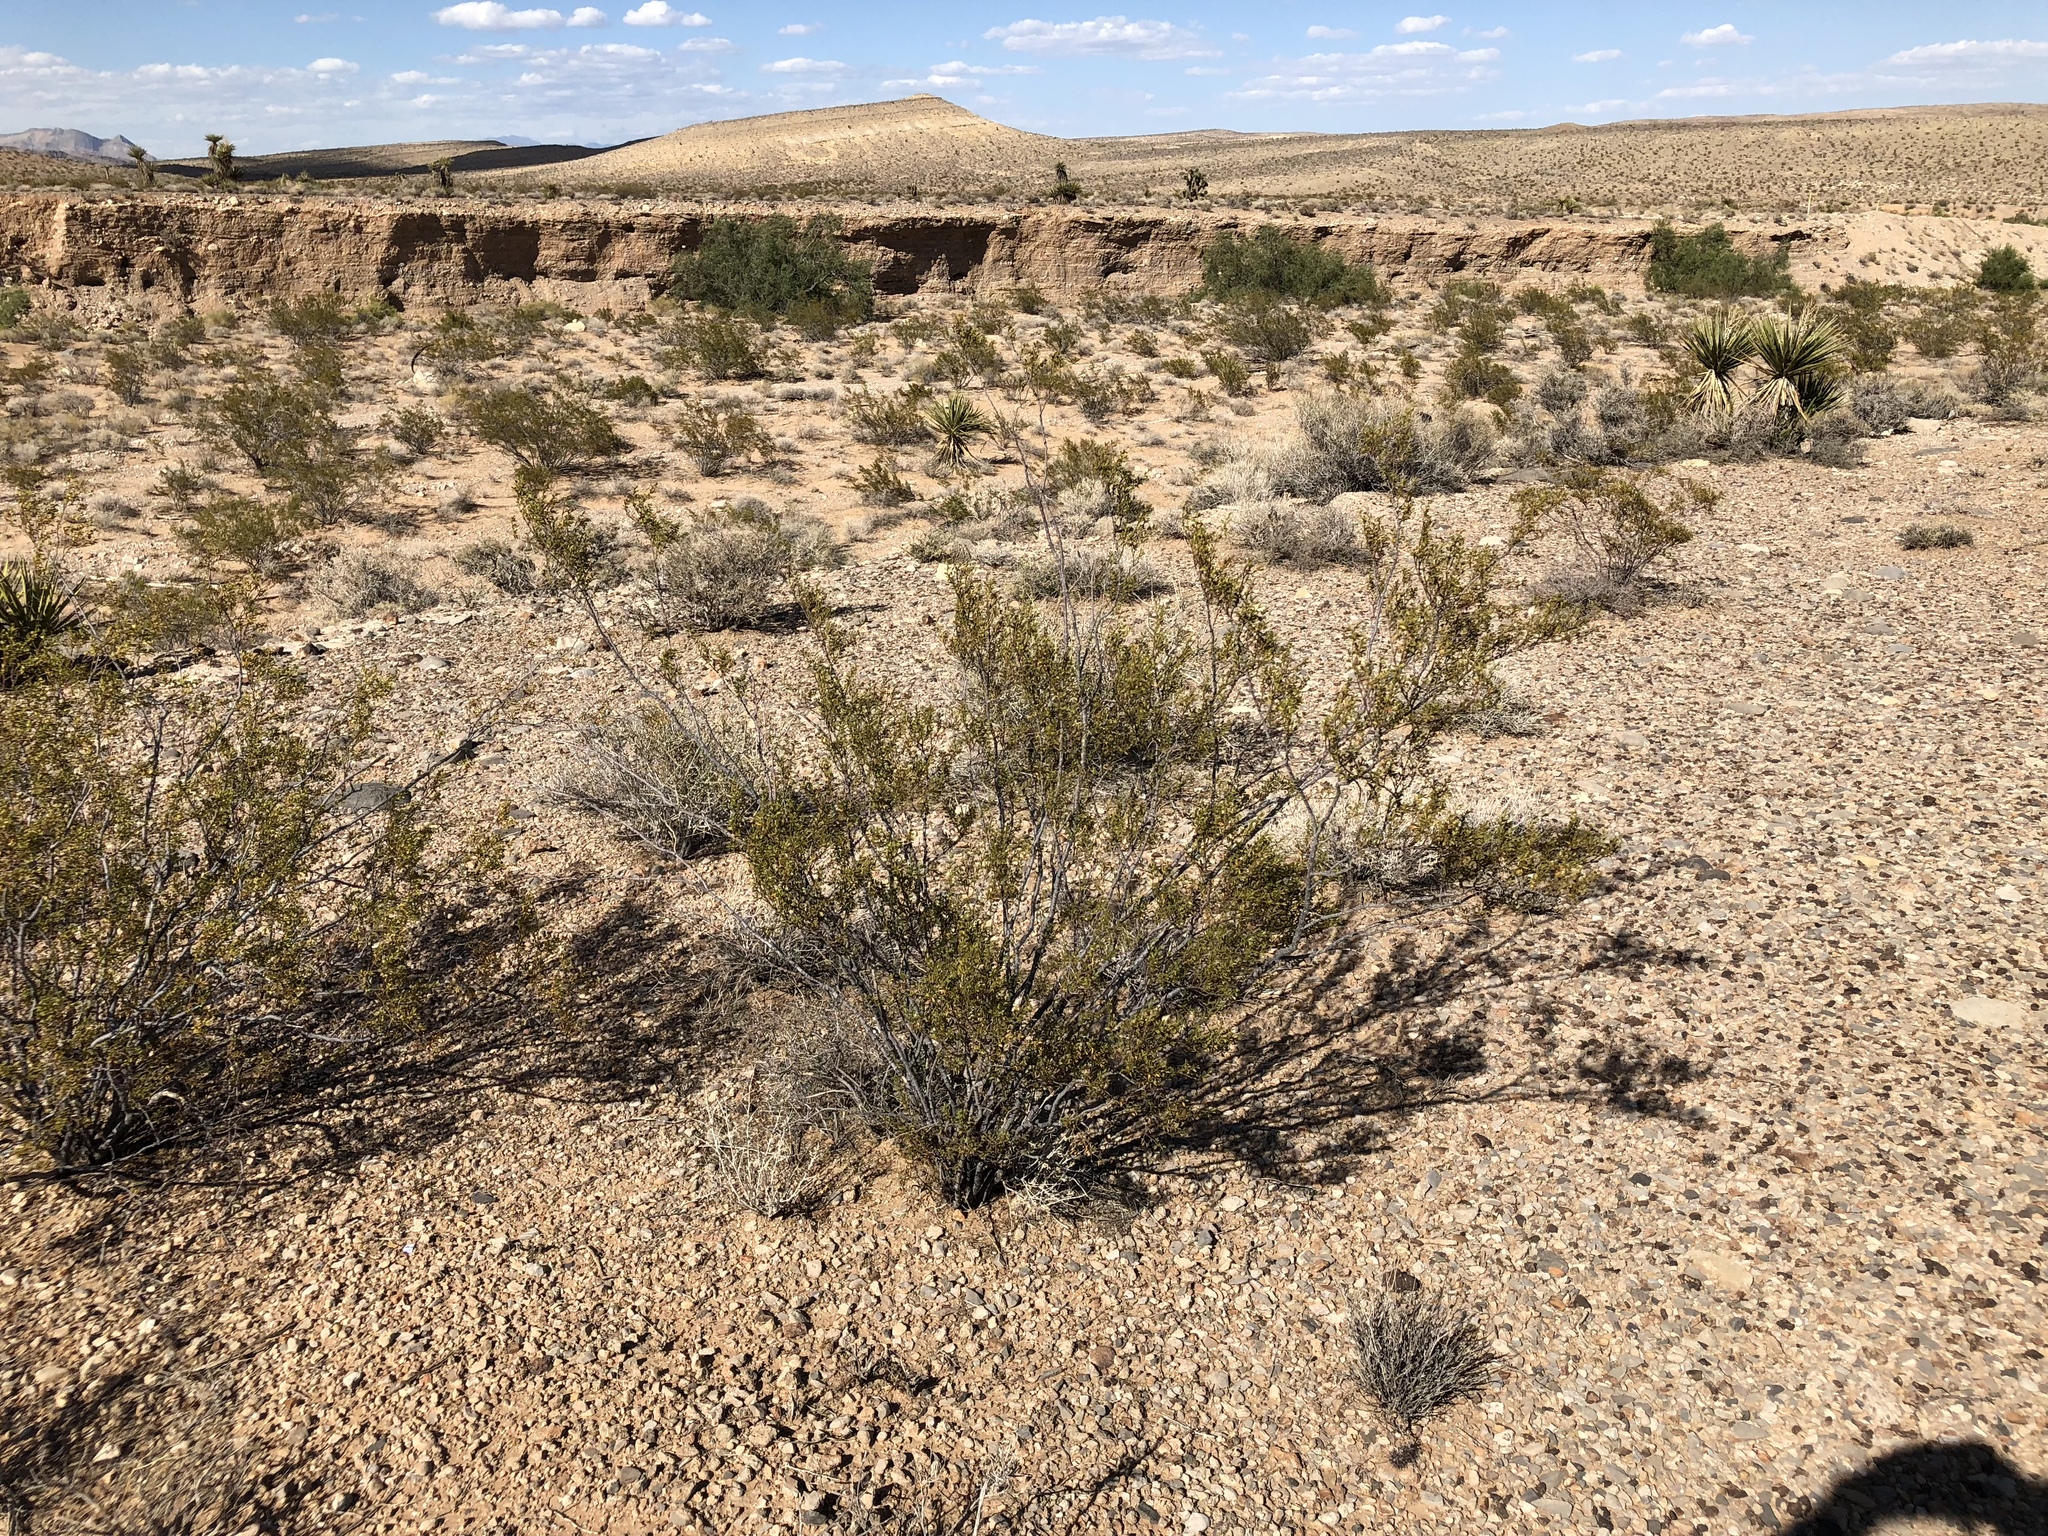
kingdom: Plantae
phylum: Tracheophyta
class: Magnoliopsida
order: Zygophyllales
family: Zygophyllaceae
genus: Larrea
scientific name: Larrea tridentata
